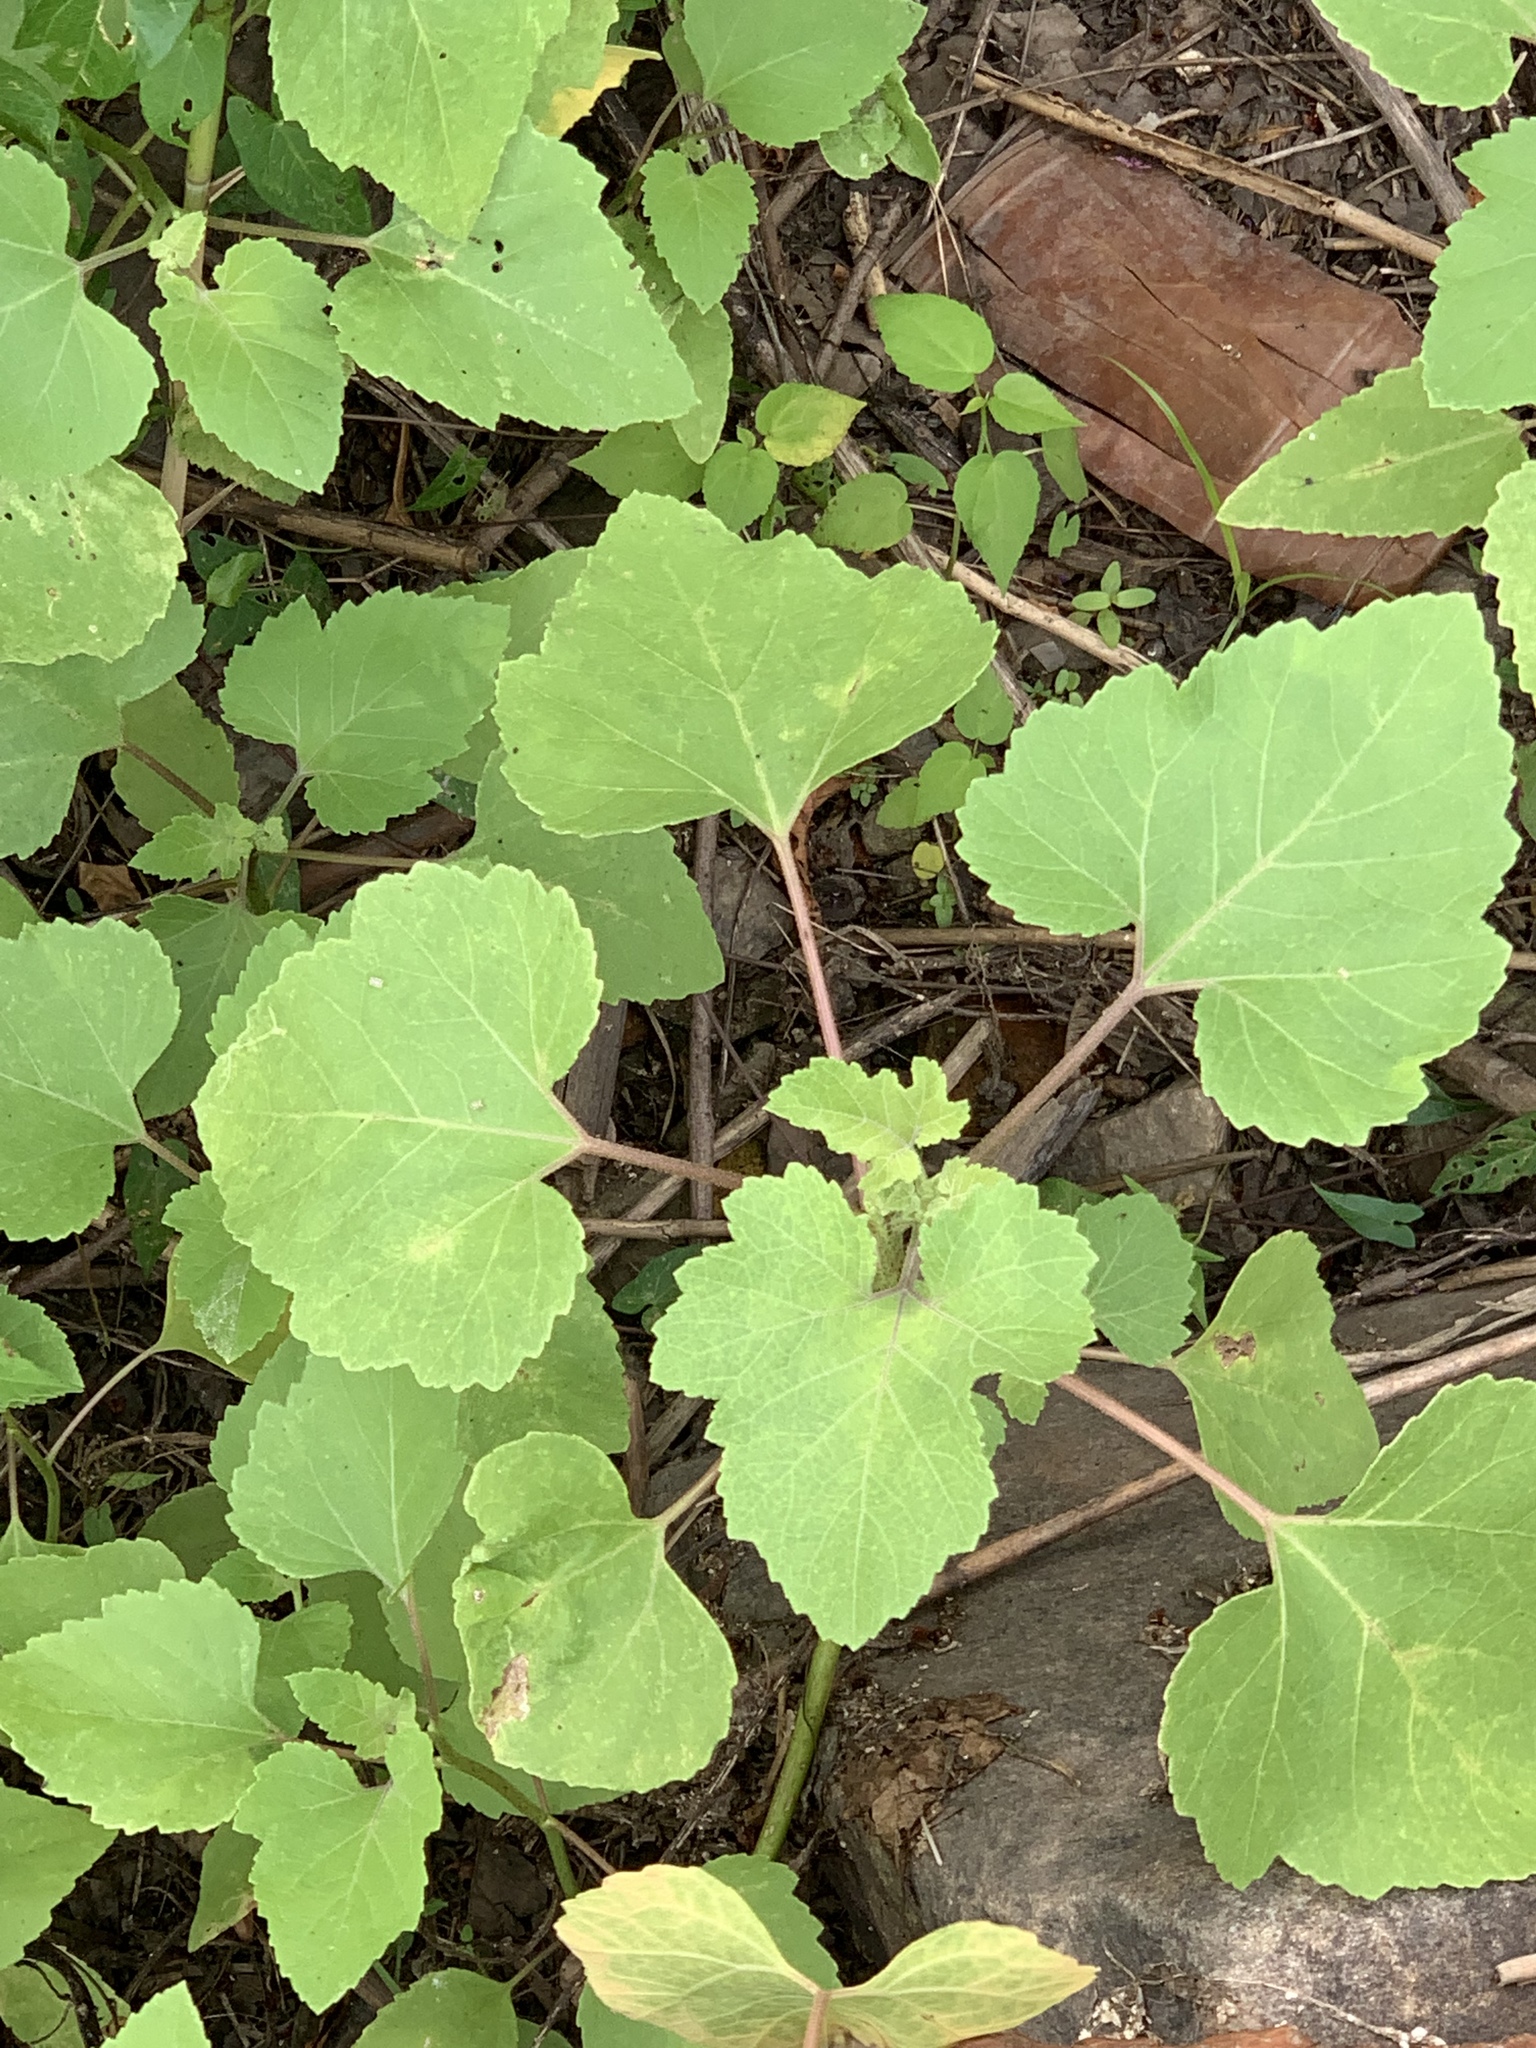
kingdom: Plantae
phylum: Tracheophyta
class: Magnoliopsida
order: Asterales
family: Asteraceae
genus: Xanthium
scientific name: Xanthium strumarium
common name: Rough cocklebur
